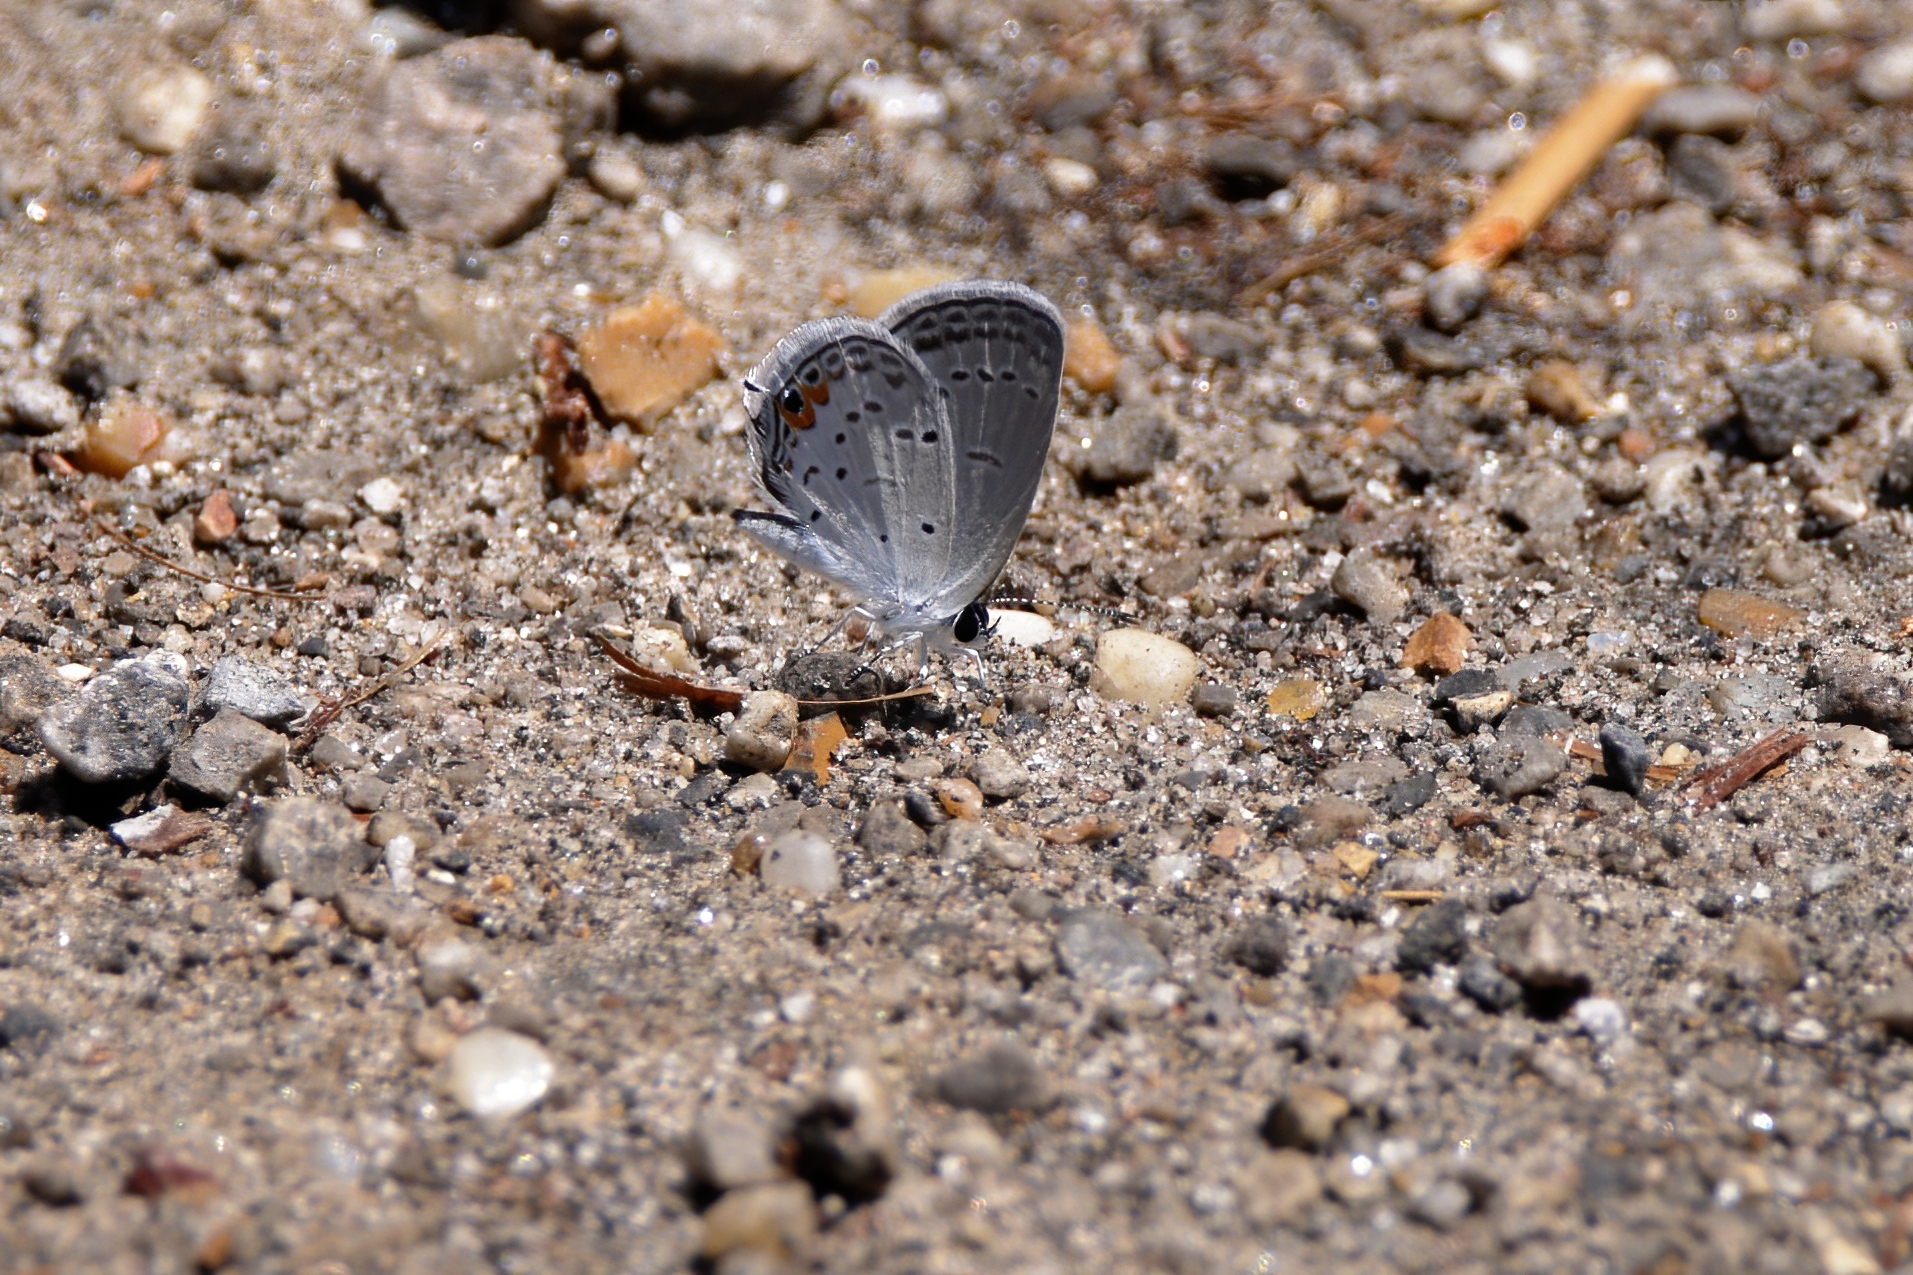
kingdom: Animalia
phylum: Arthropoda
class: Insecta
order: Lepidoptera
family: Lycaenidae
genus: Elkalyce
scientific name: Elkalyce comyntas
